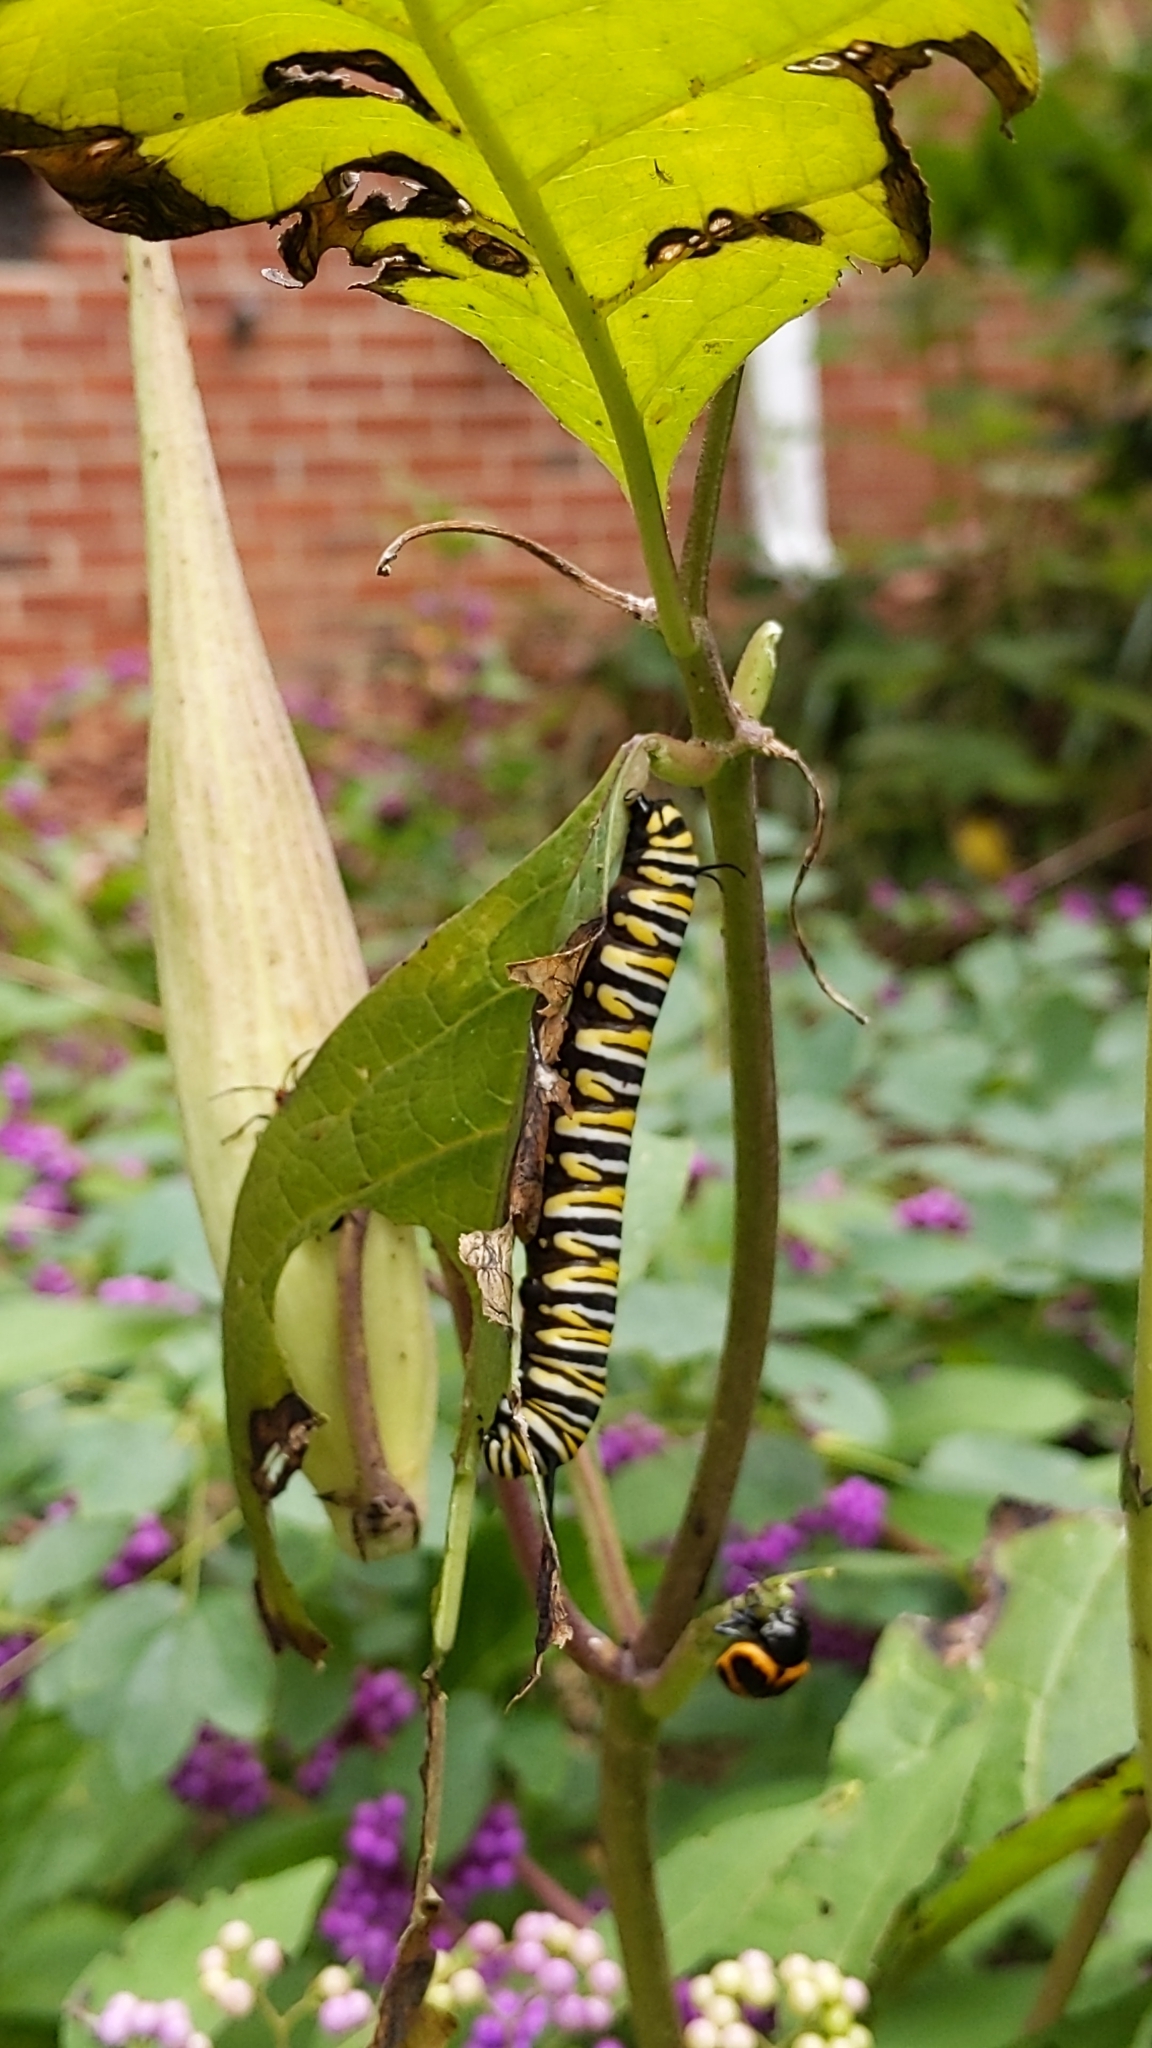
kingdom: Animalia
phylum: Arthropoda
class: Insecta
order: Lepidoptera
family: Nymphalidae
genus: Danaus
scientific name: Danaus plexippus
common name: Monarch
